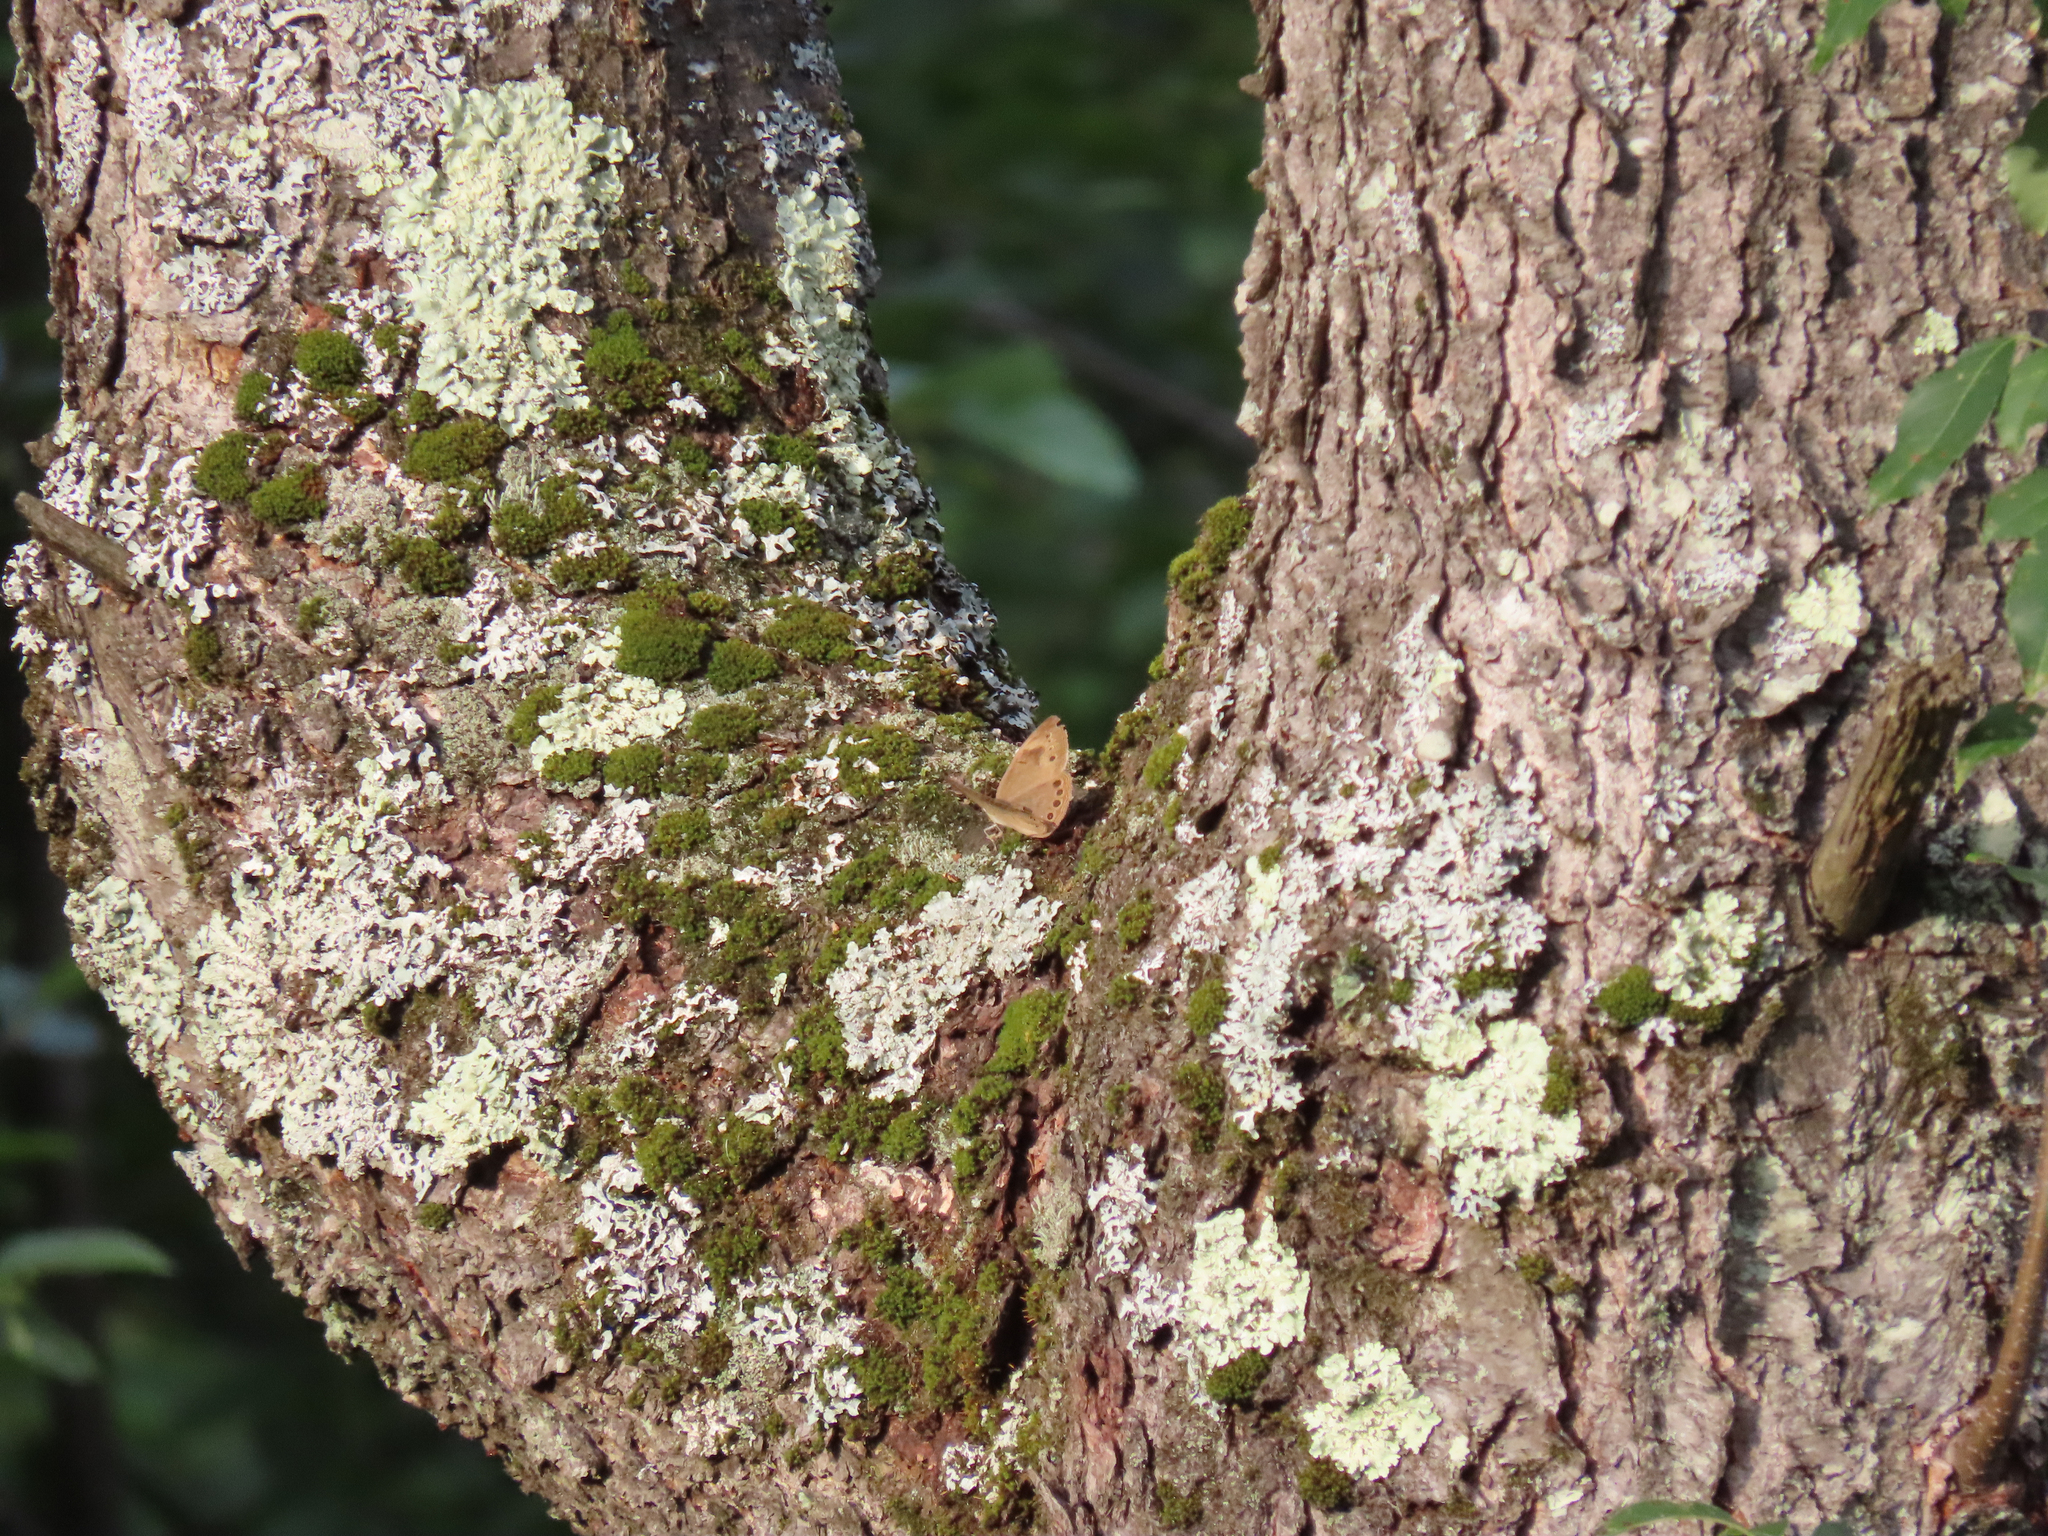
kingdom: Animalia
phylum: Arthropoda
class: Insecta
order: Lepidoptera
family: Nymphalidae
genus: Lethe
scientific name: Lethe eurydice
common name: Eyed brown
